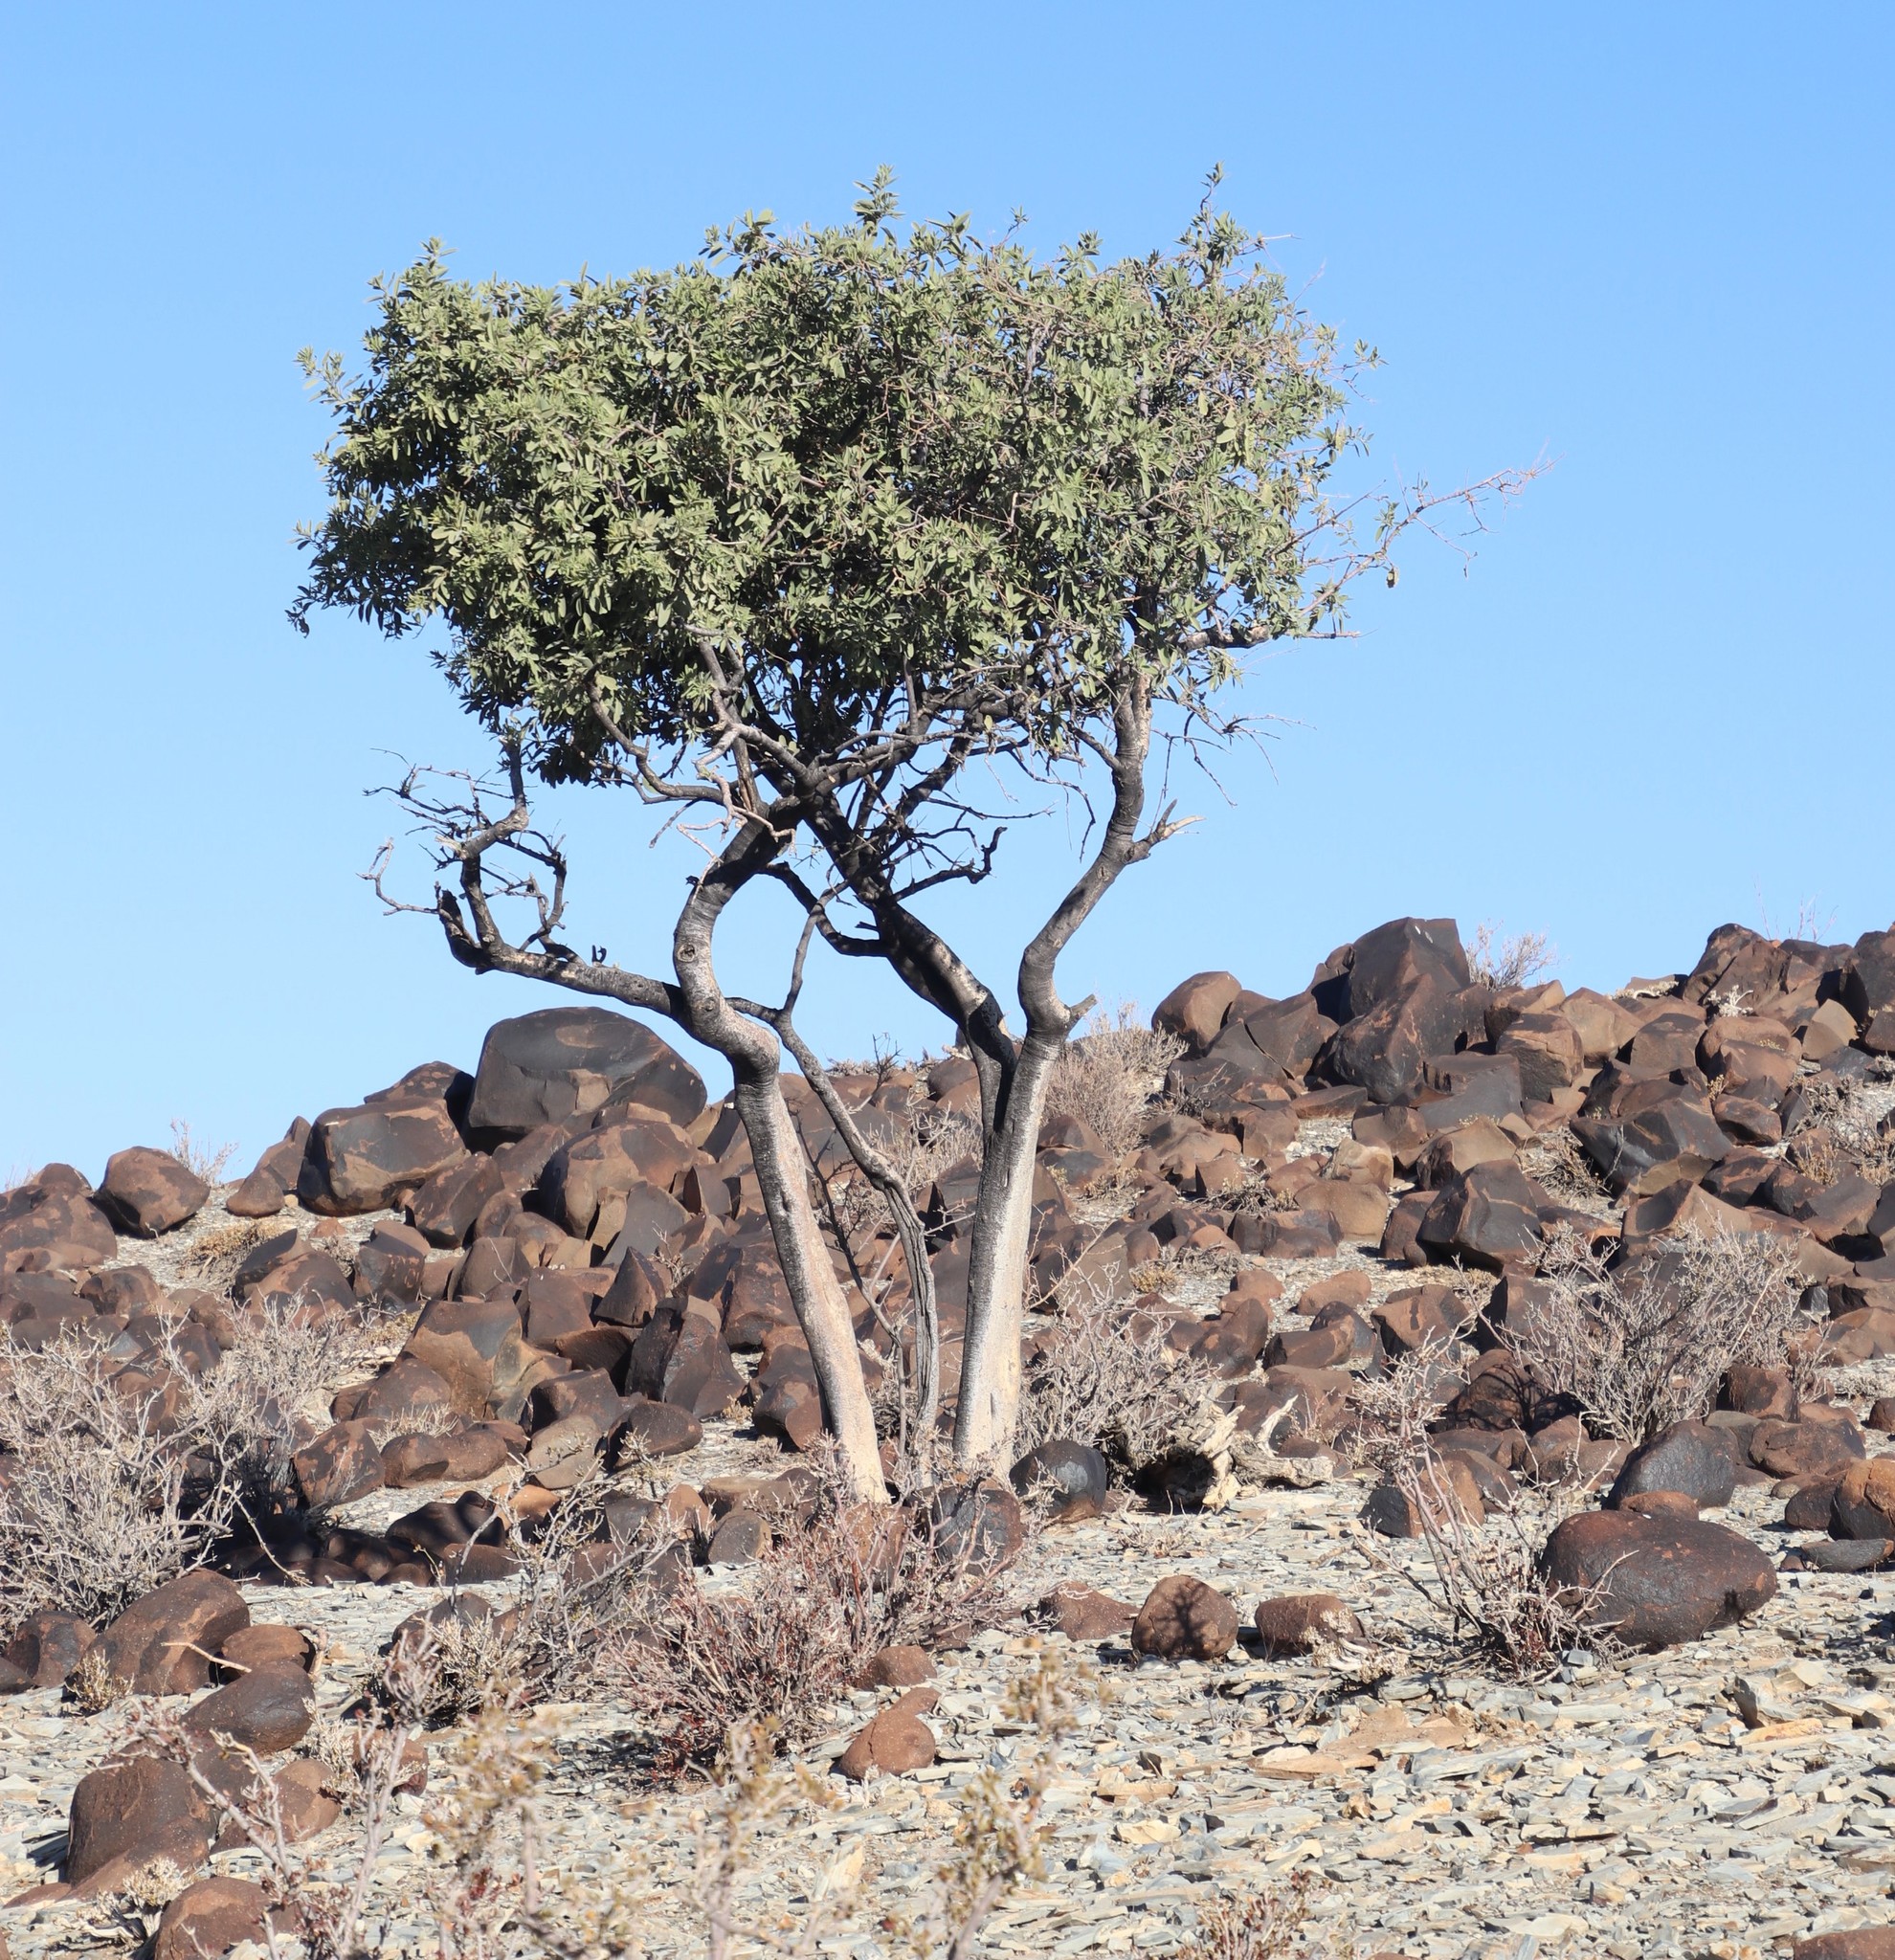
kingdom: Plantae
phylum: Tracheophyta
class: Magnoliopsida
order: Brassicales
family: Capparaceae
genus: Maerua
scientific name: Maerua schinzii
